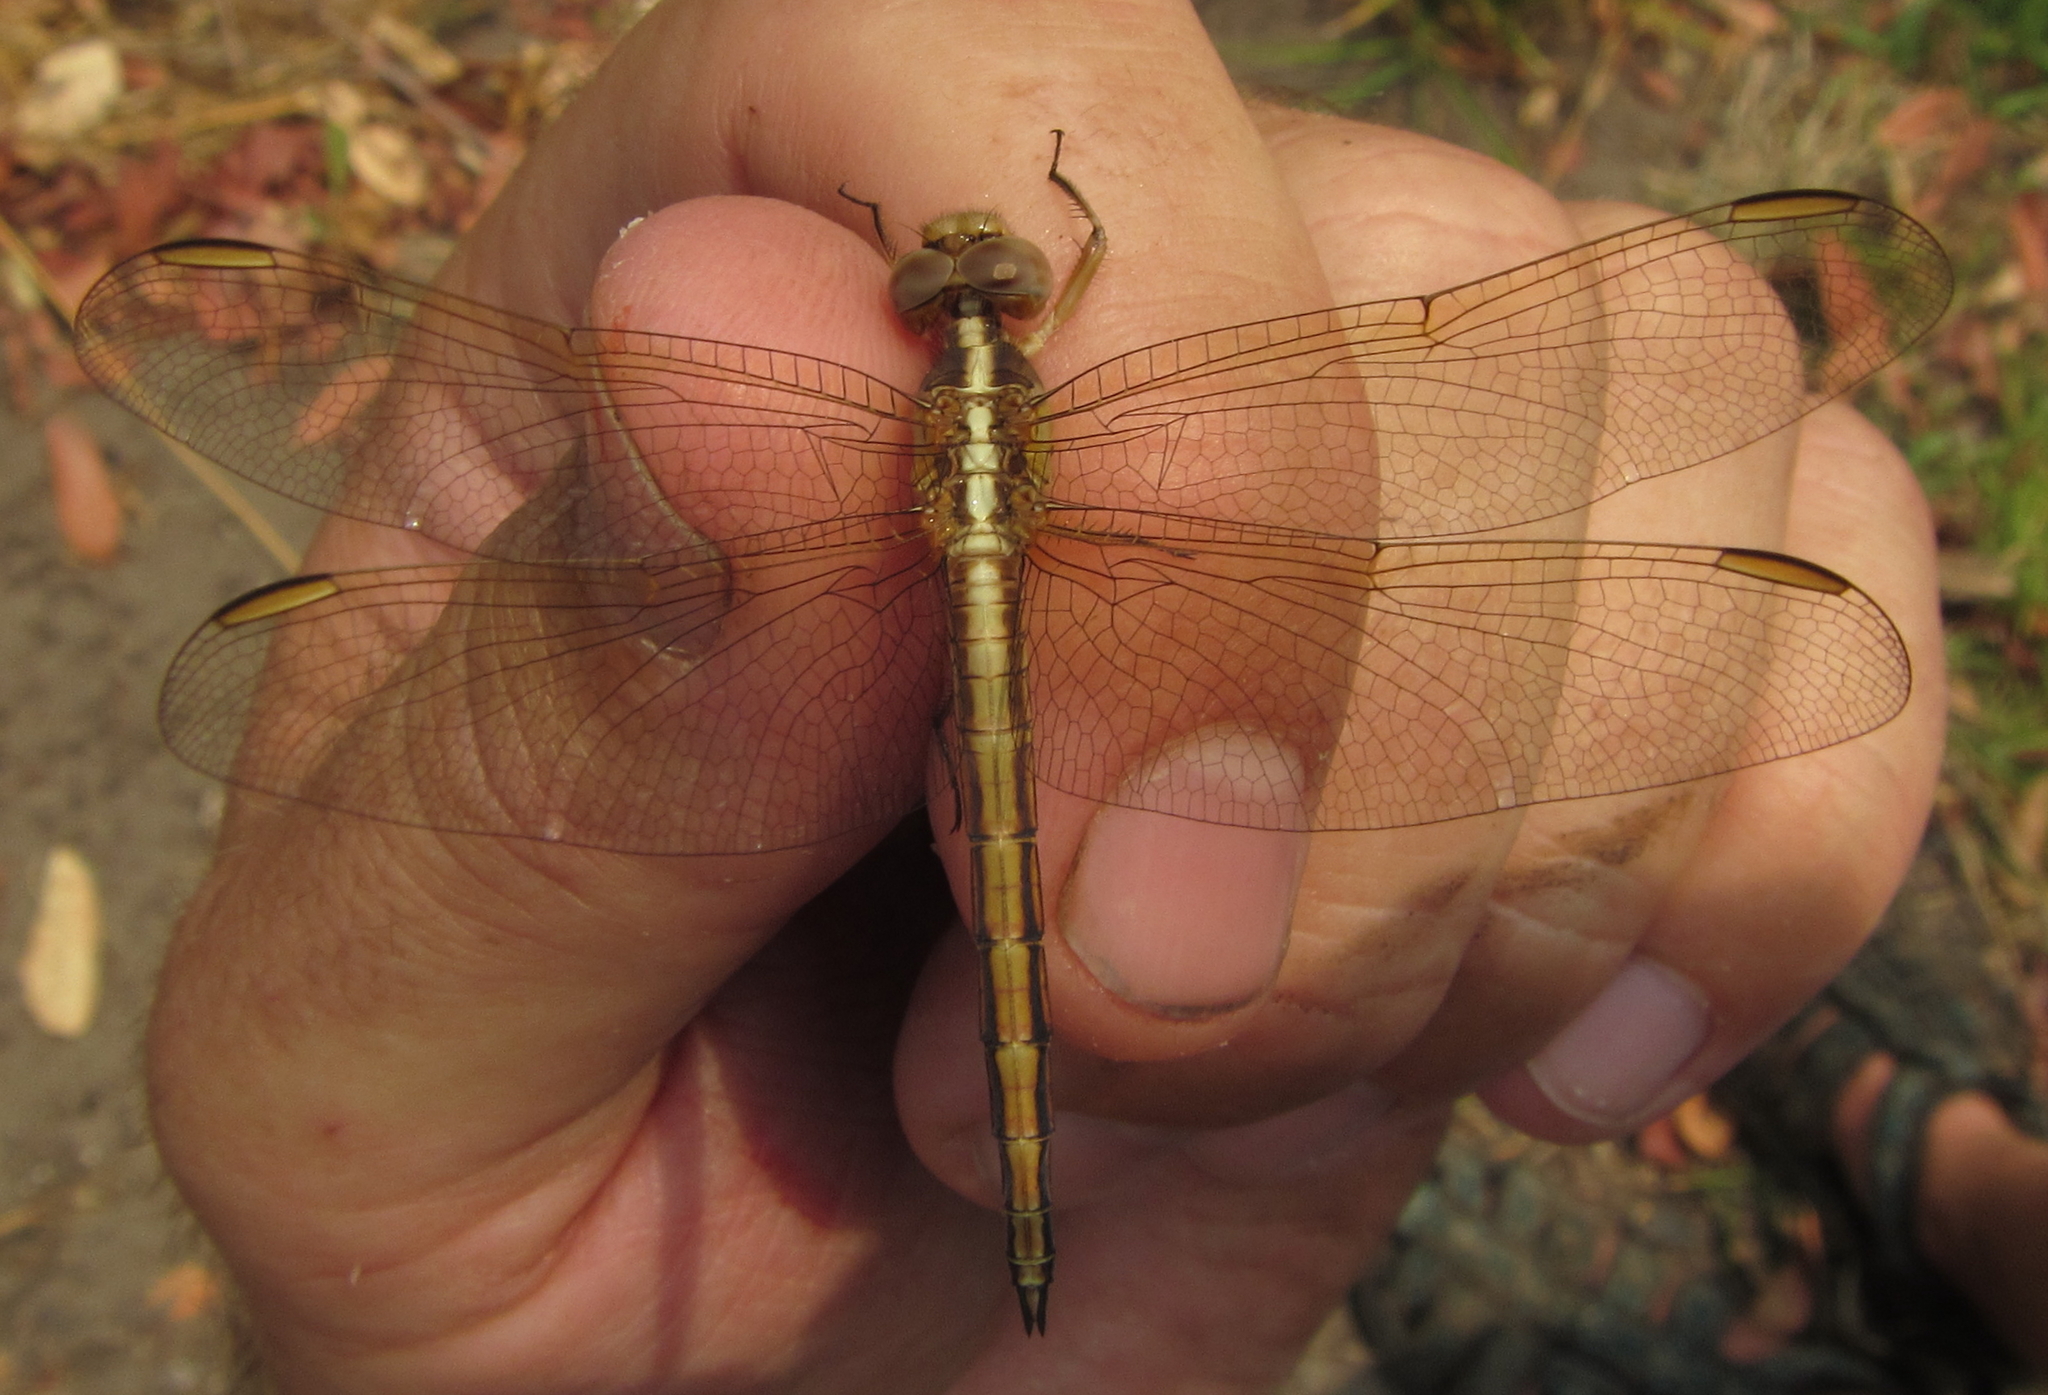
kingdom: Animalia
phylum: Arthropoda
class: Insecta
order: Odonata
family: Libellulidae
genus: Nesciothemis
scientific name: Nesciothemis farinosa
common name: Eastern blacktail
